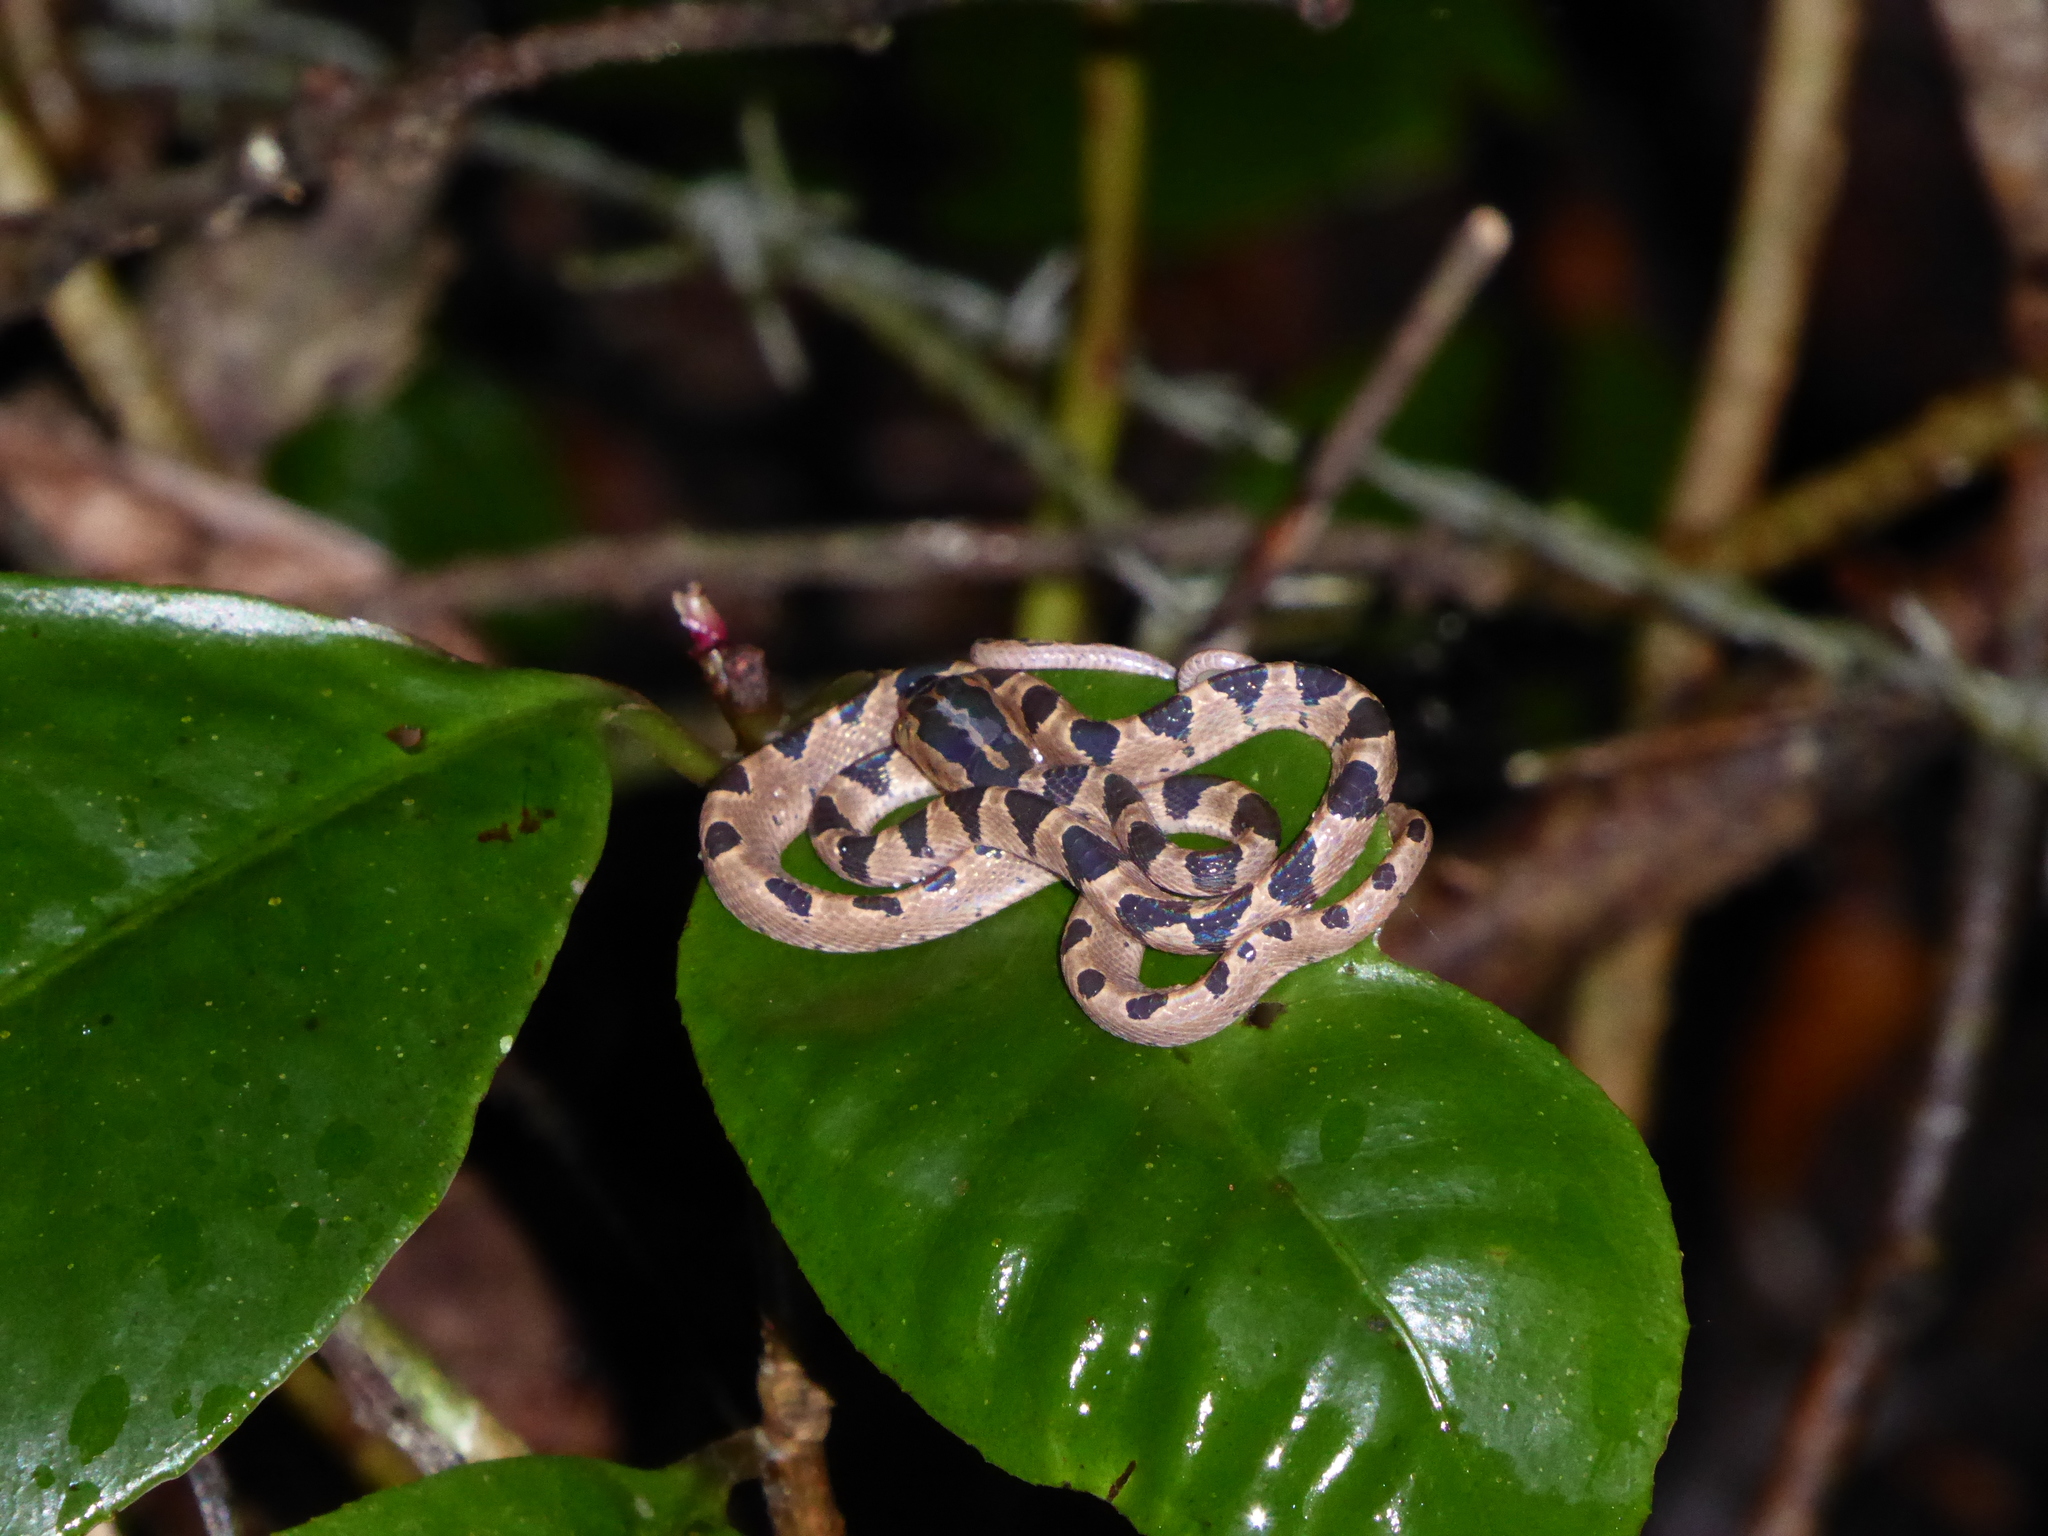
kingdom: Animalia
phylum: Chordata
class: Squamata
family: Colubridae
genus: Imantodes
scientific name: Imantodes cenchoa
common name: Blunthead tree snake
